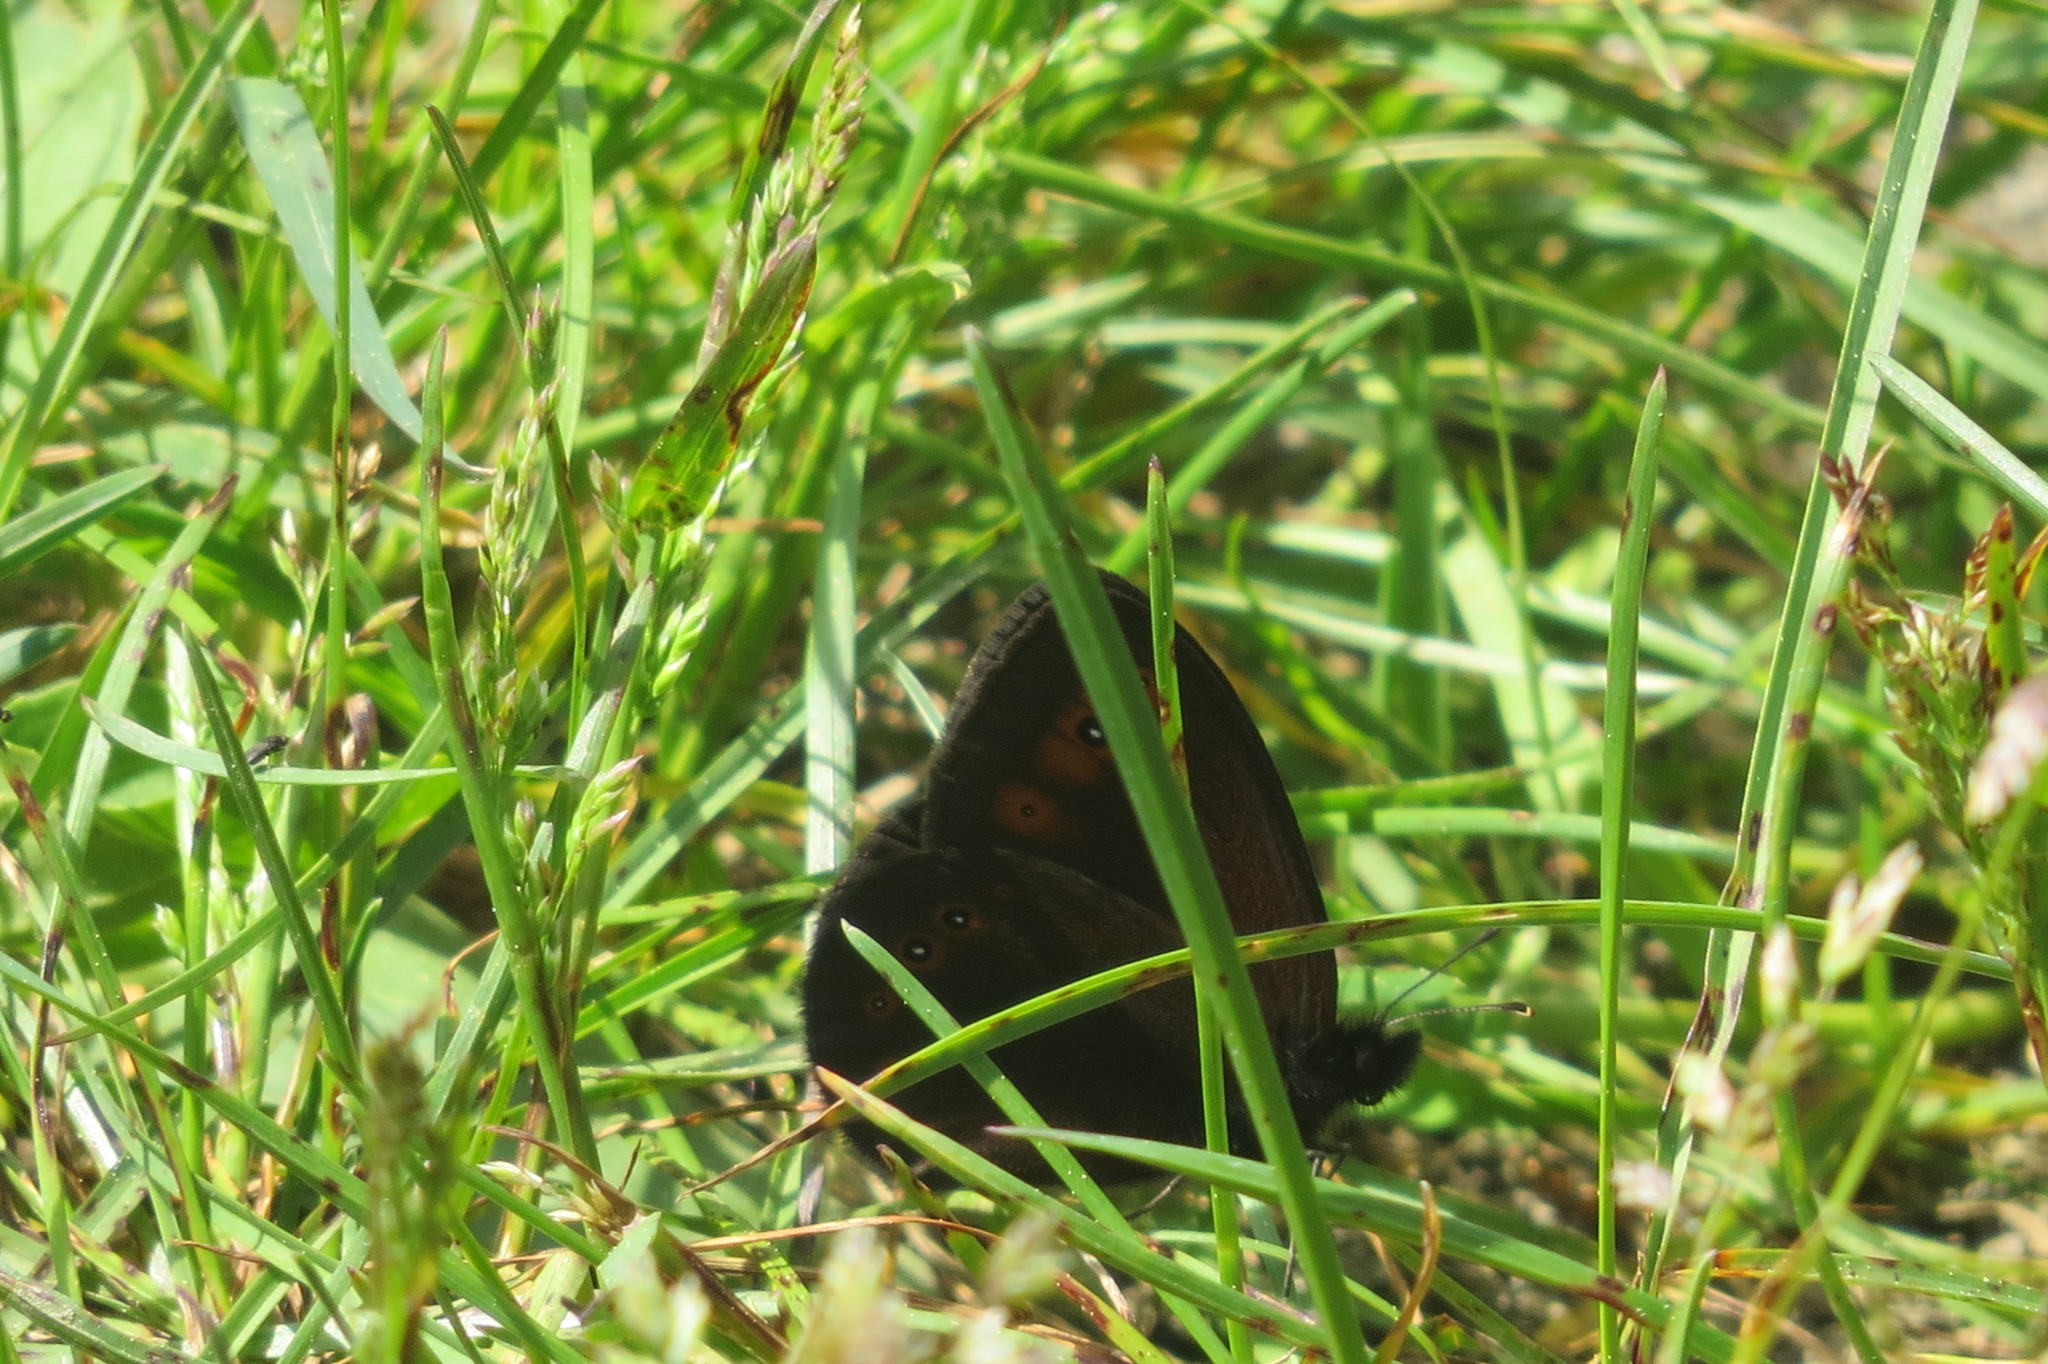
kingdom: Animalia
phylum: Arthropoda
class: Insecta
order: Lepidoptera
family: Nymphalidae
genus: Erebia
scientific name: Erebia medusa
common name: Woodland ringlet
